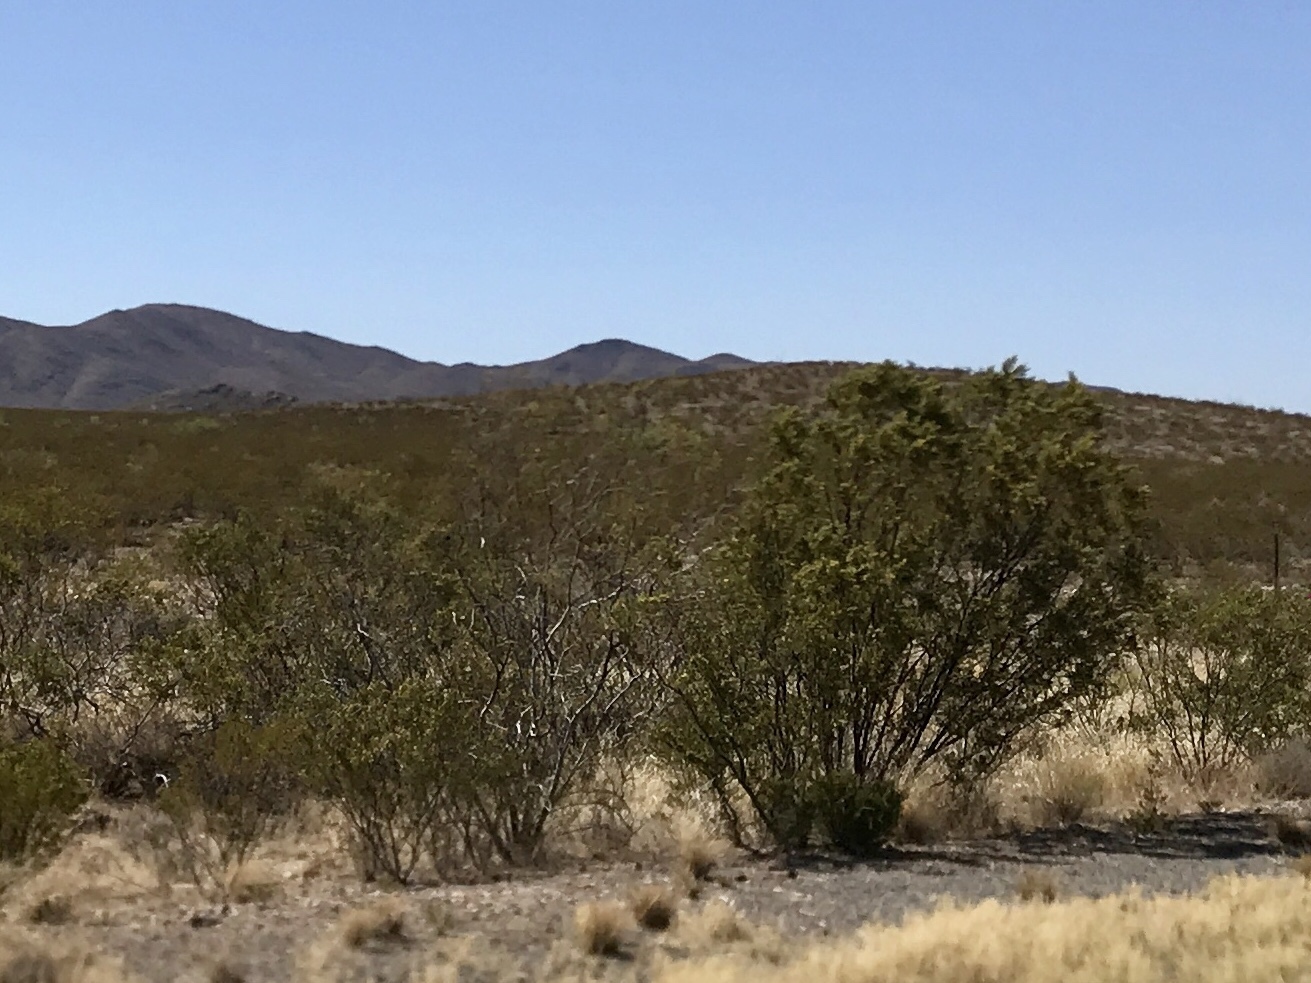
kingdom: Plantae
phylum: Tracheophyta
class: Magnoliopsida
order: Zygophyllales
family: Zygophyllaceae
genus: Larrea
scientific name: Larrea tridentata
